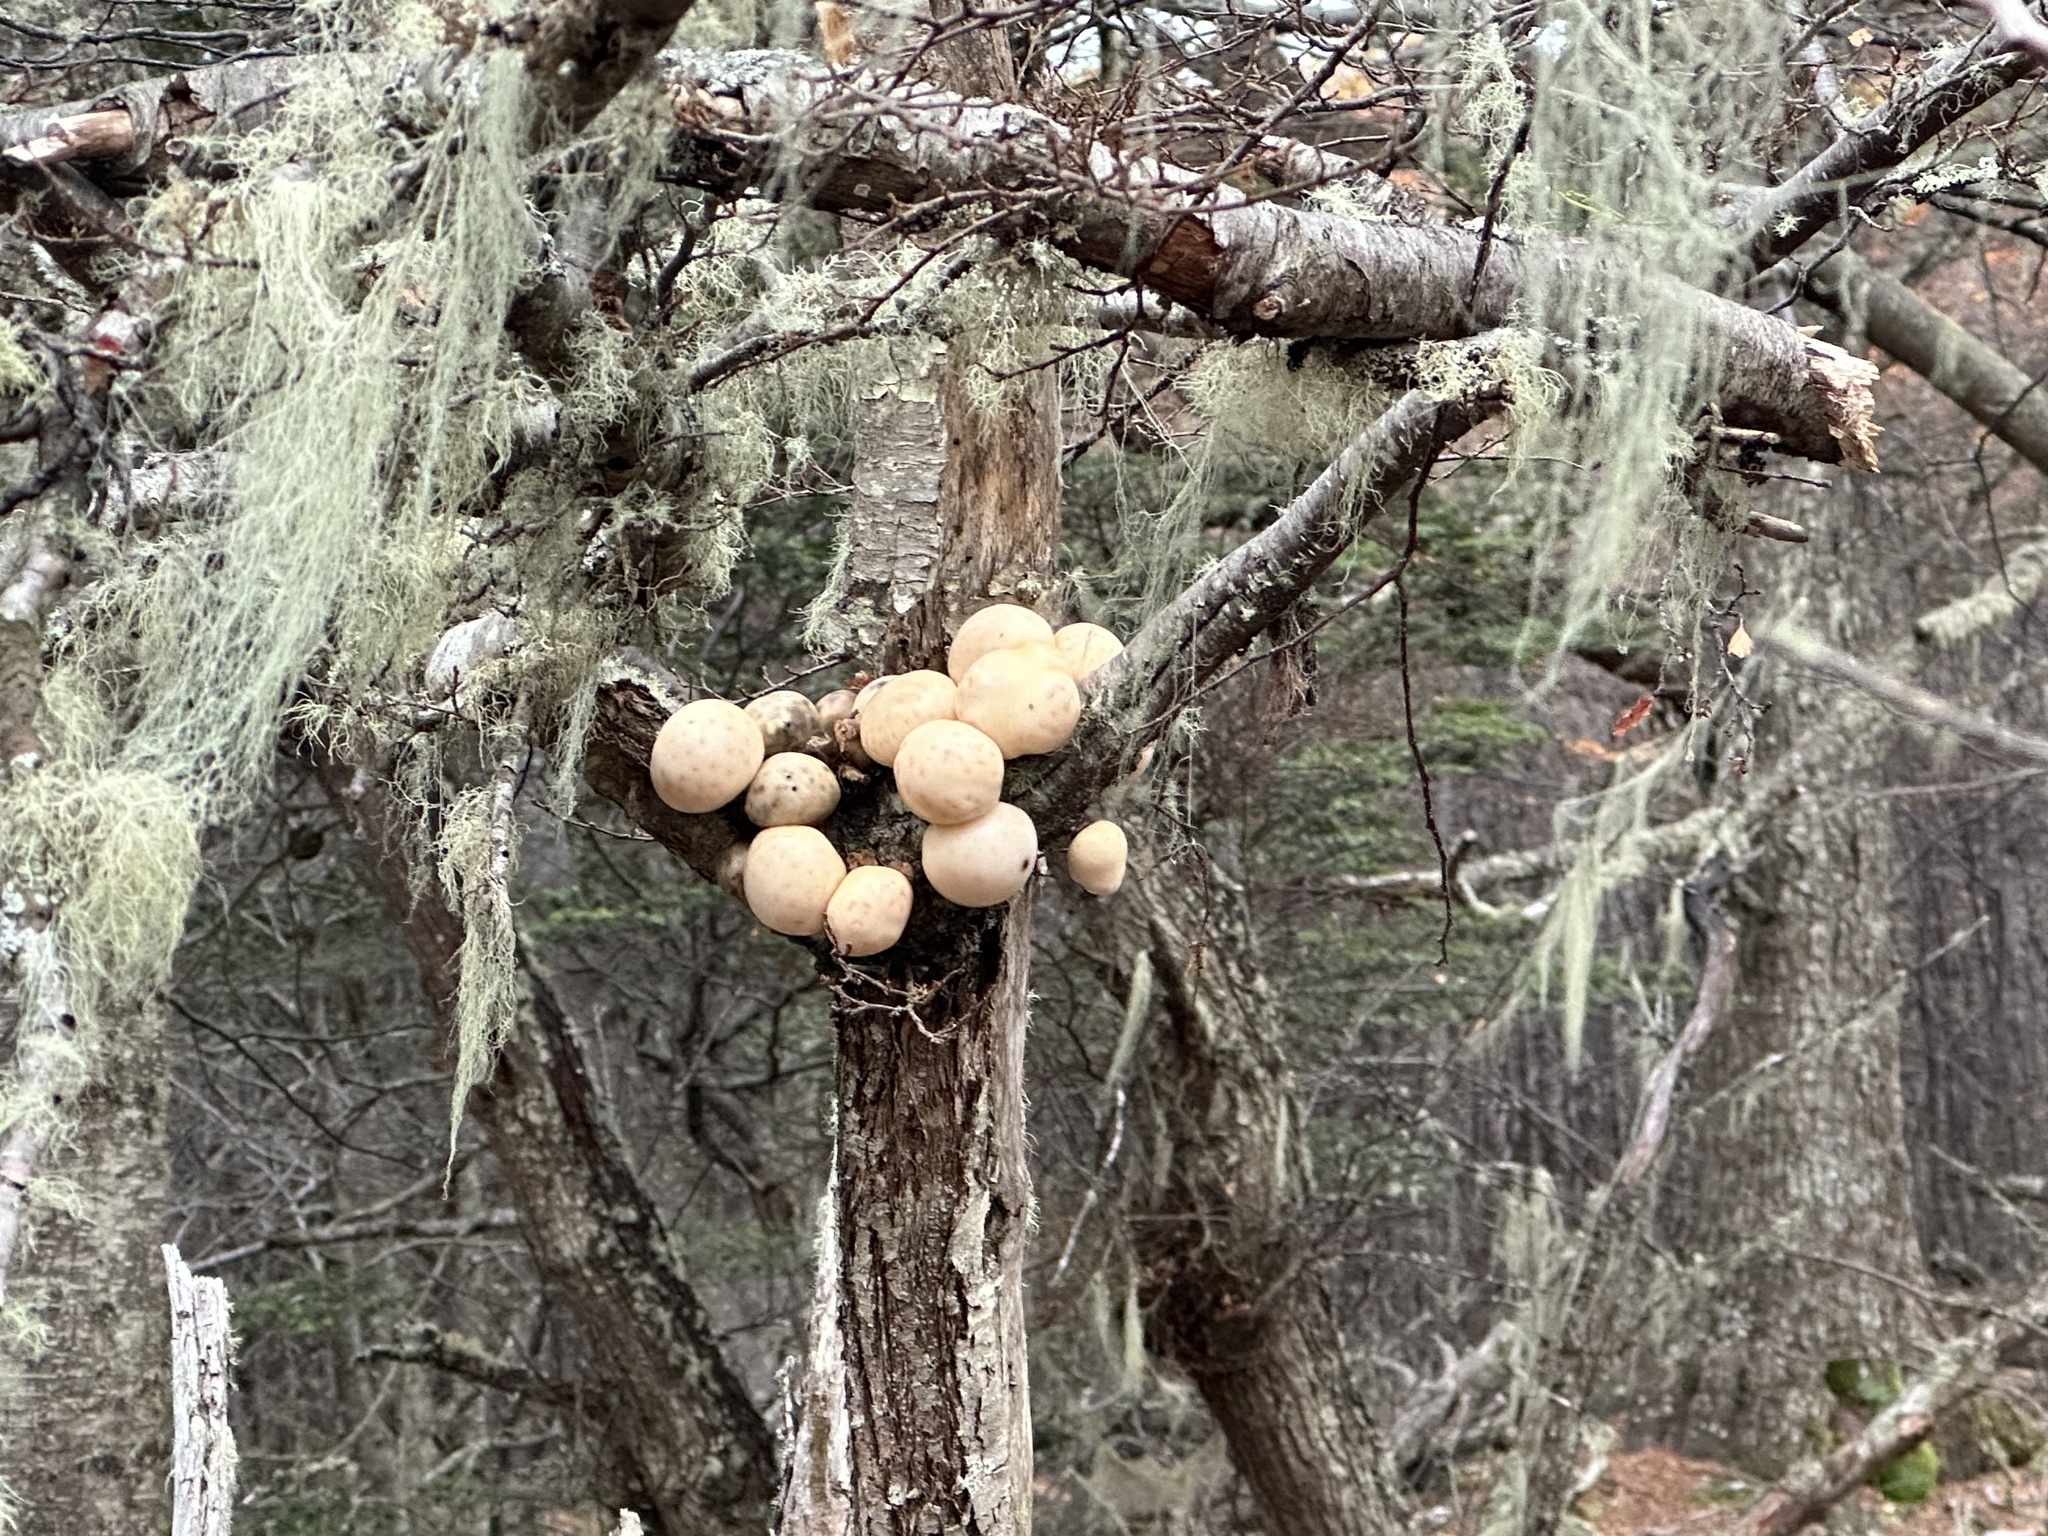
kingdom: Fungi
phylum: Ascomycota
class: Leotiomycetes
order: Cyttariales
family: Cyttariaceae
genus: Cyttaria
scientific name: Cyttaria darwinii
